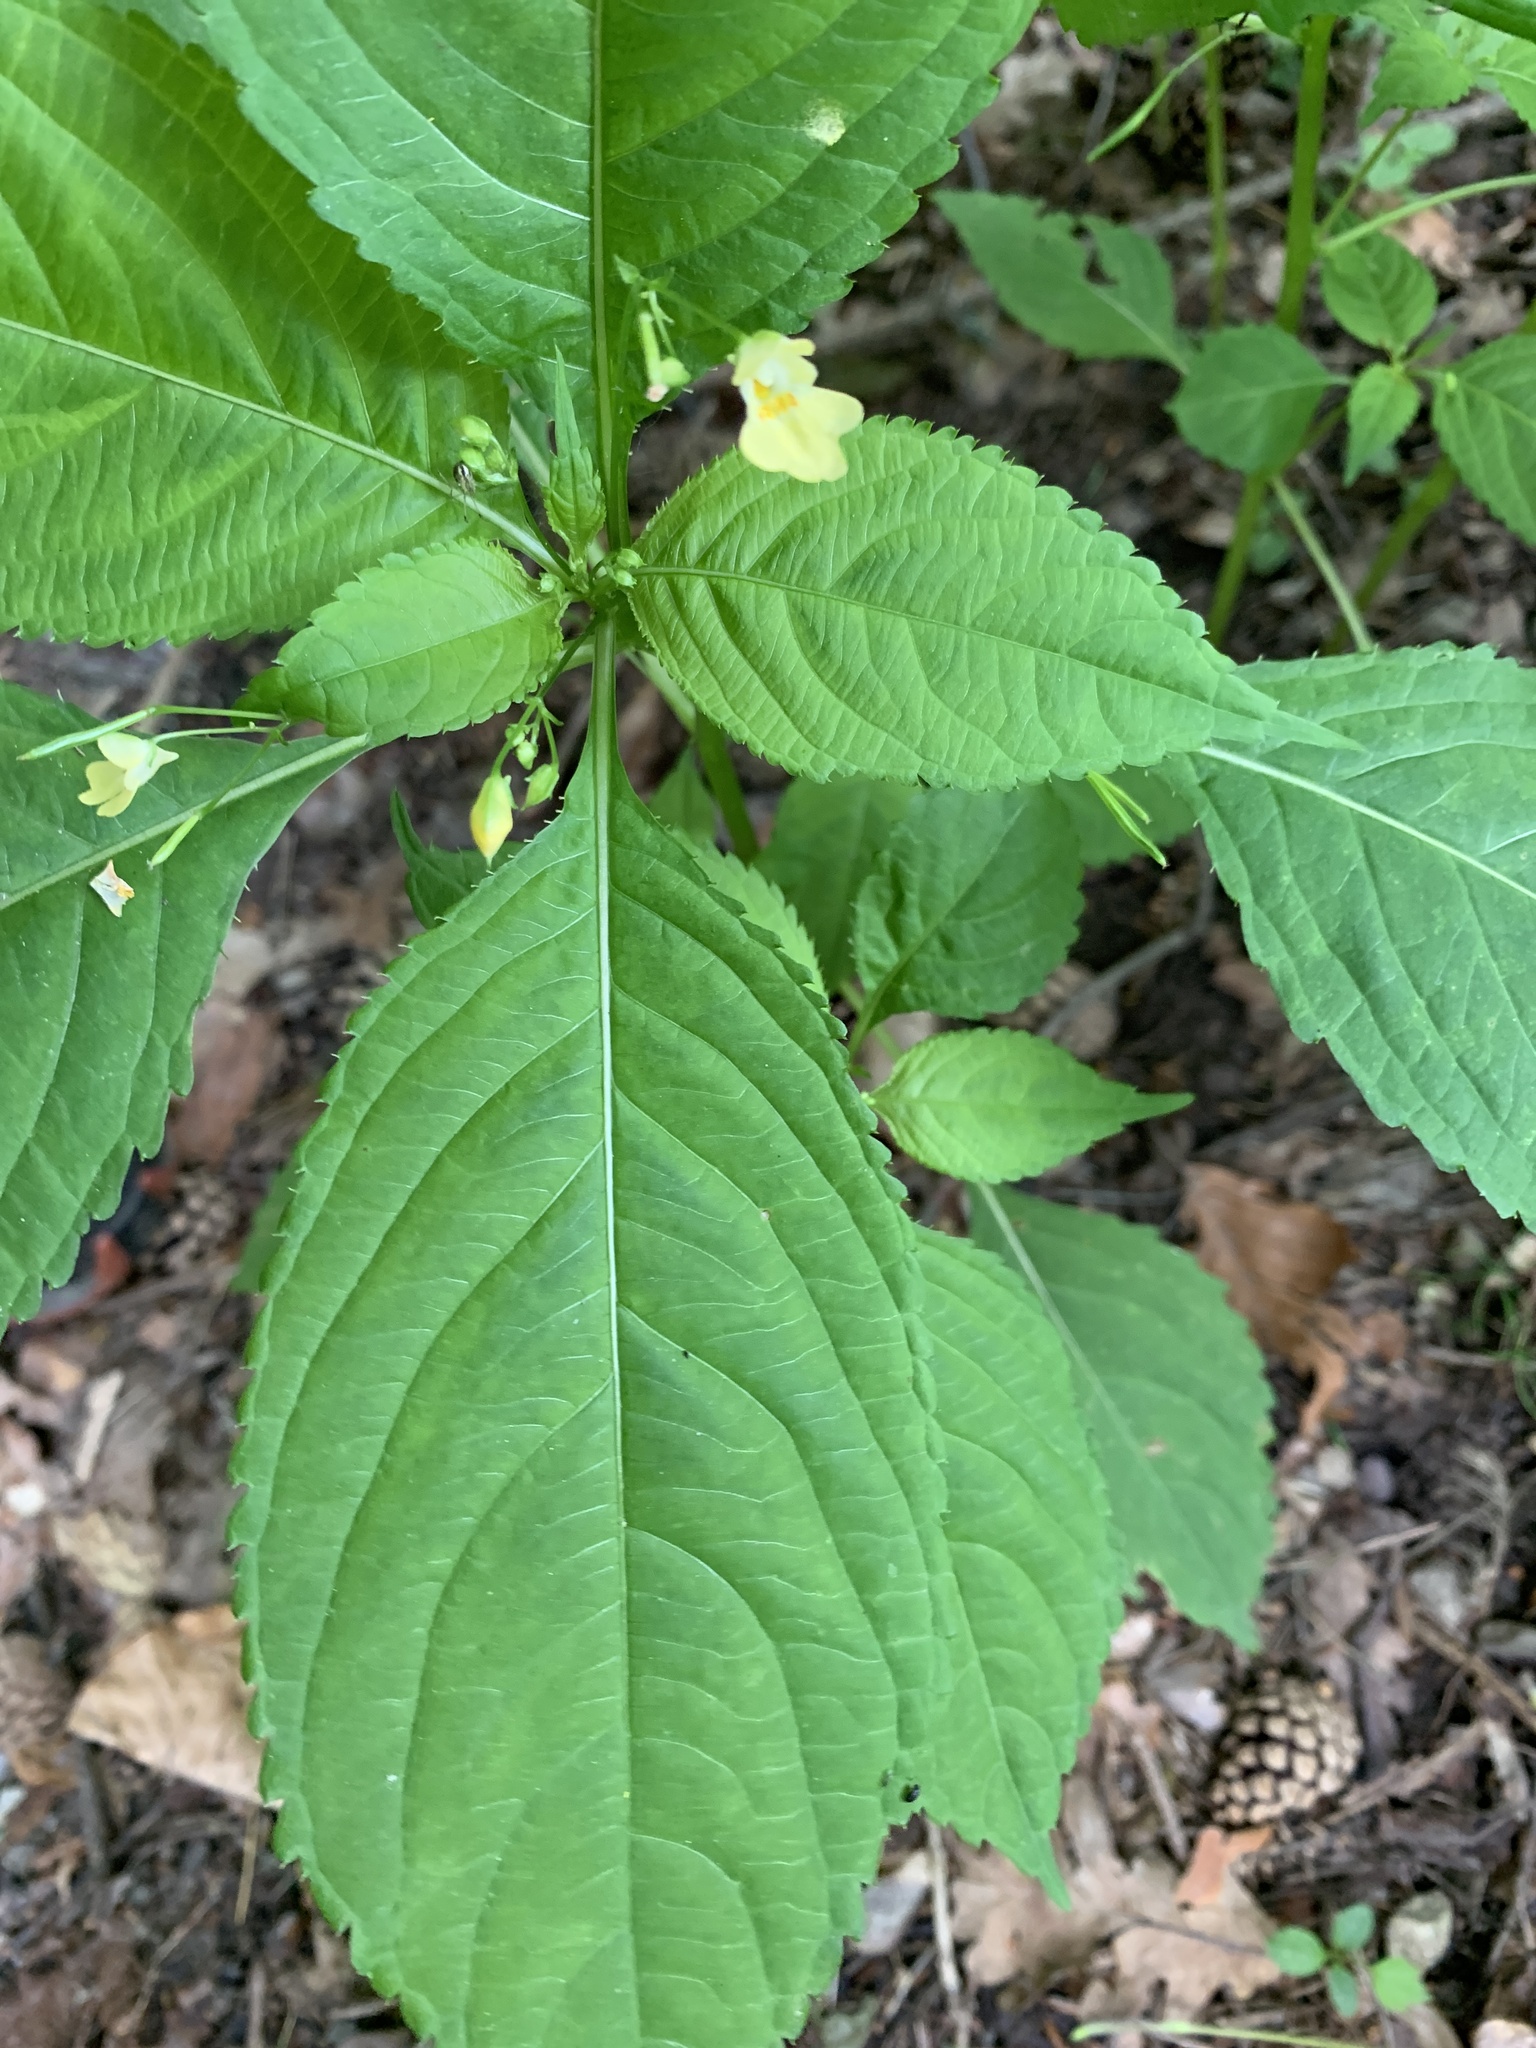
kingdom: Plantae
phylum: Tracheophyta
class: Magnoliopsida
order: Ericales
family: Balsaminaceae
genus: Impatiens
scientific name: Impatiens parviflora
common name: Small balsam
